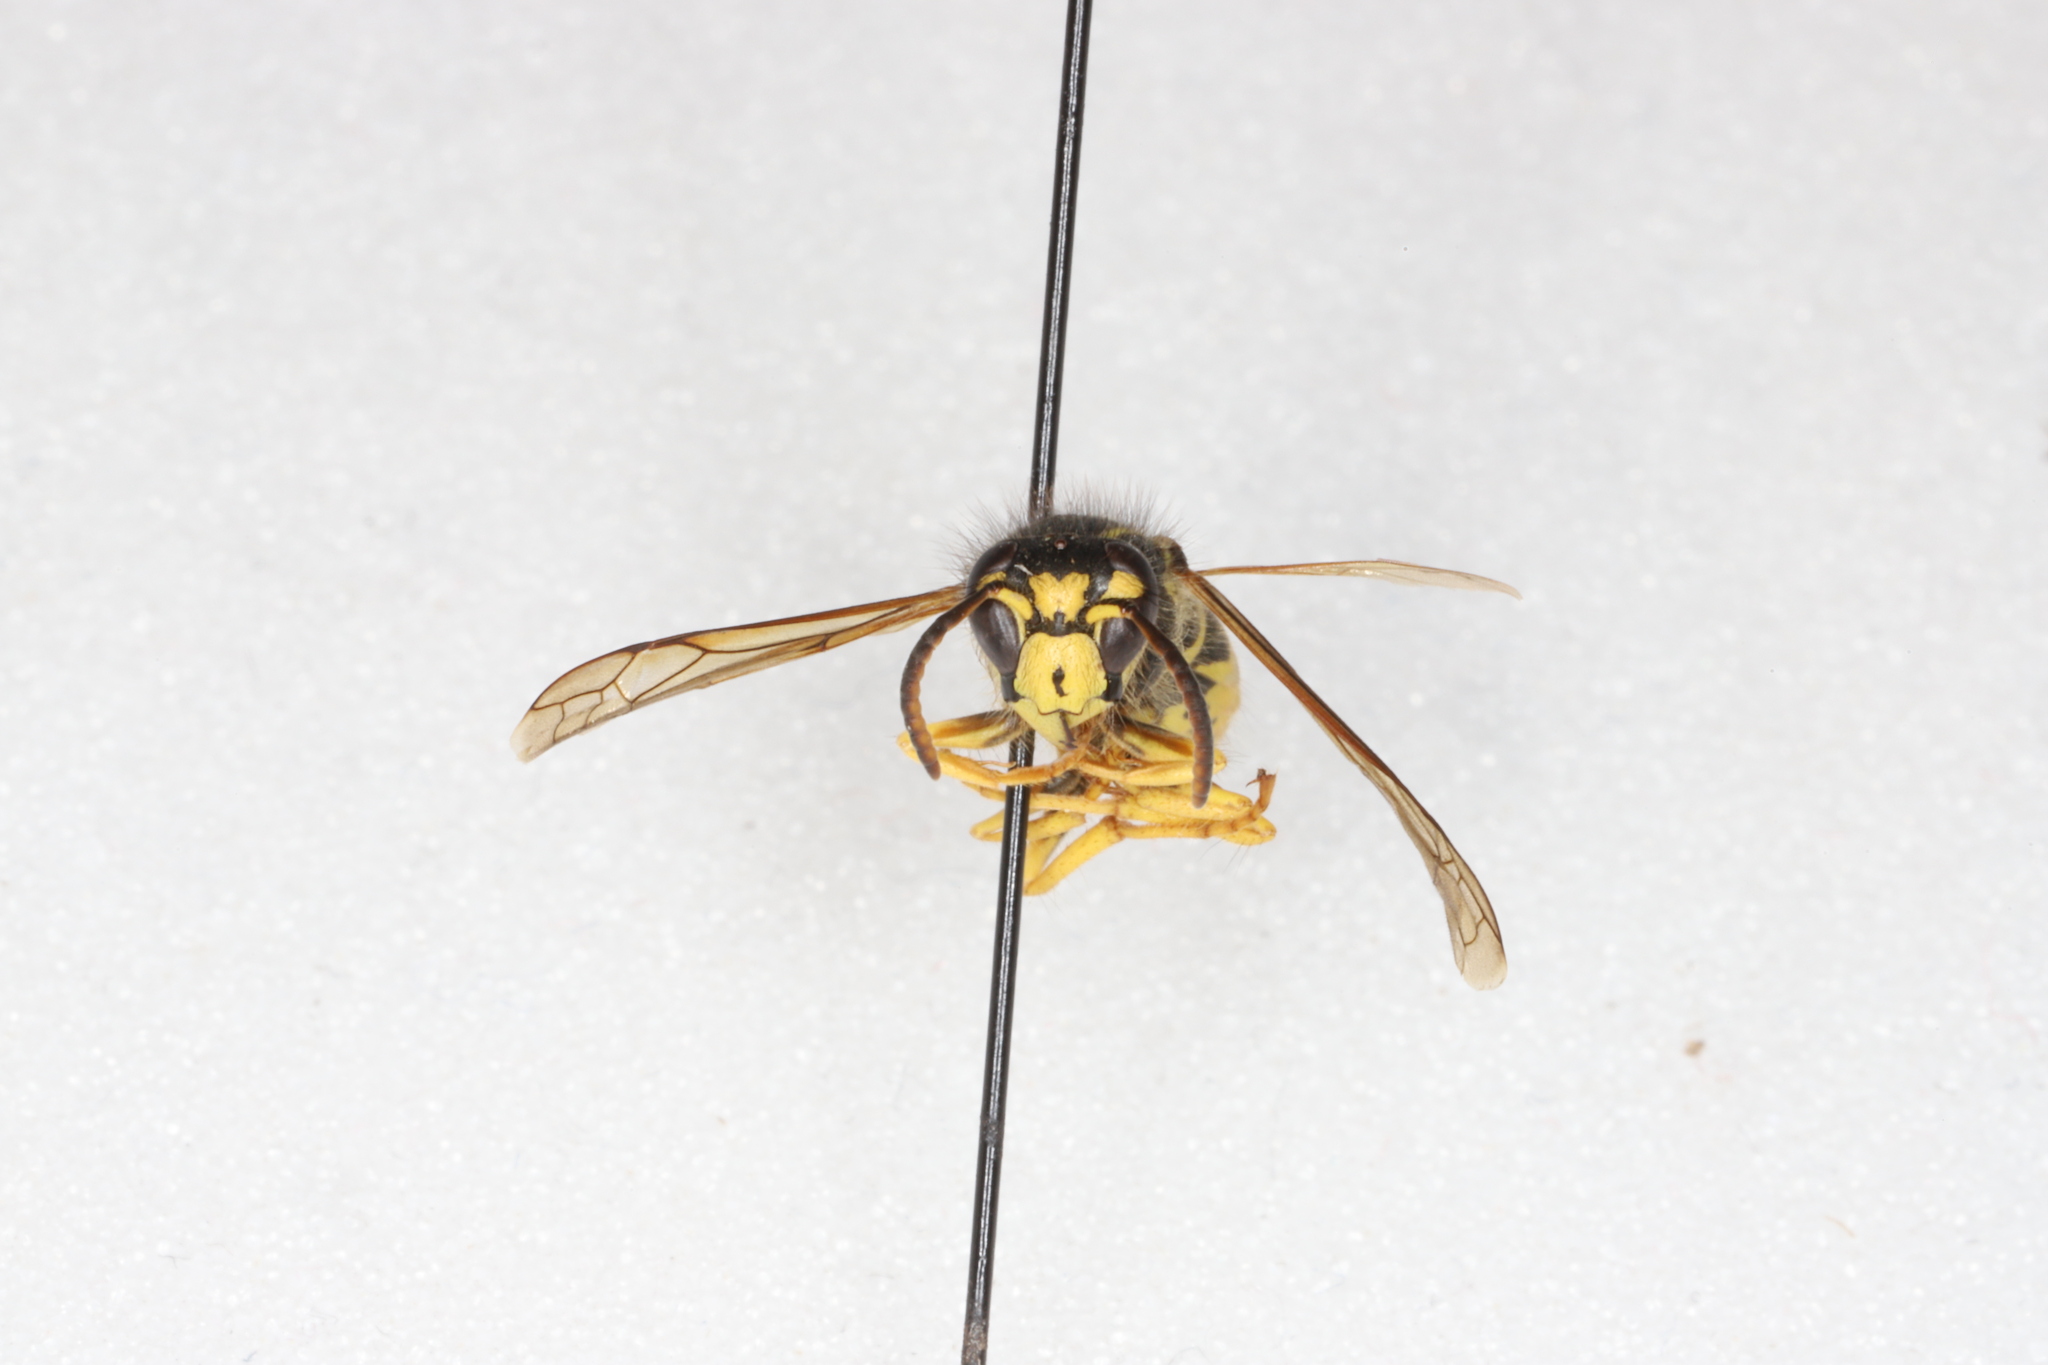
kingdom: Animalia
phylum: Arthropoda
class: Insecta
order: Hymenoptera
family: Vespidae
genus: Dolichovespula
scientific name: Dolichovespula arenaria
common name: Aerial yellowjacket
